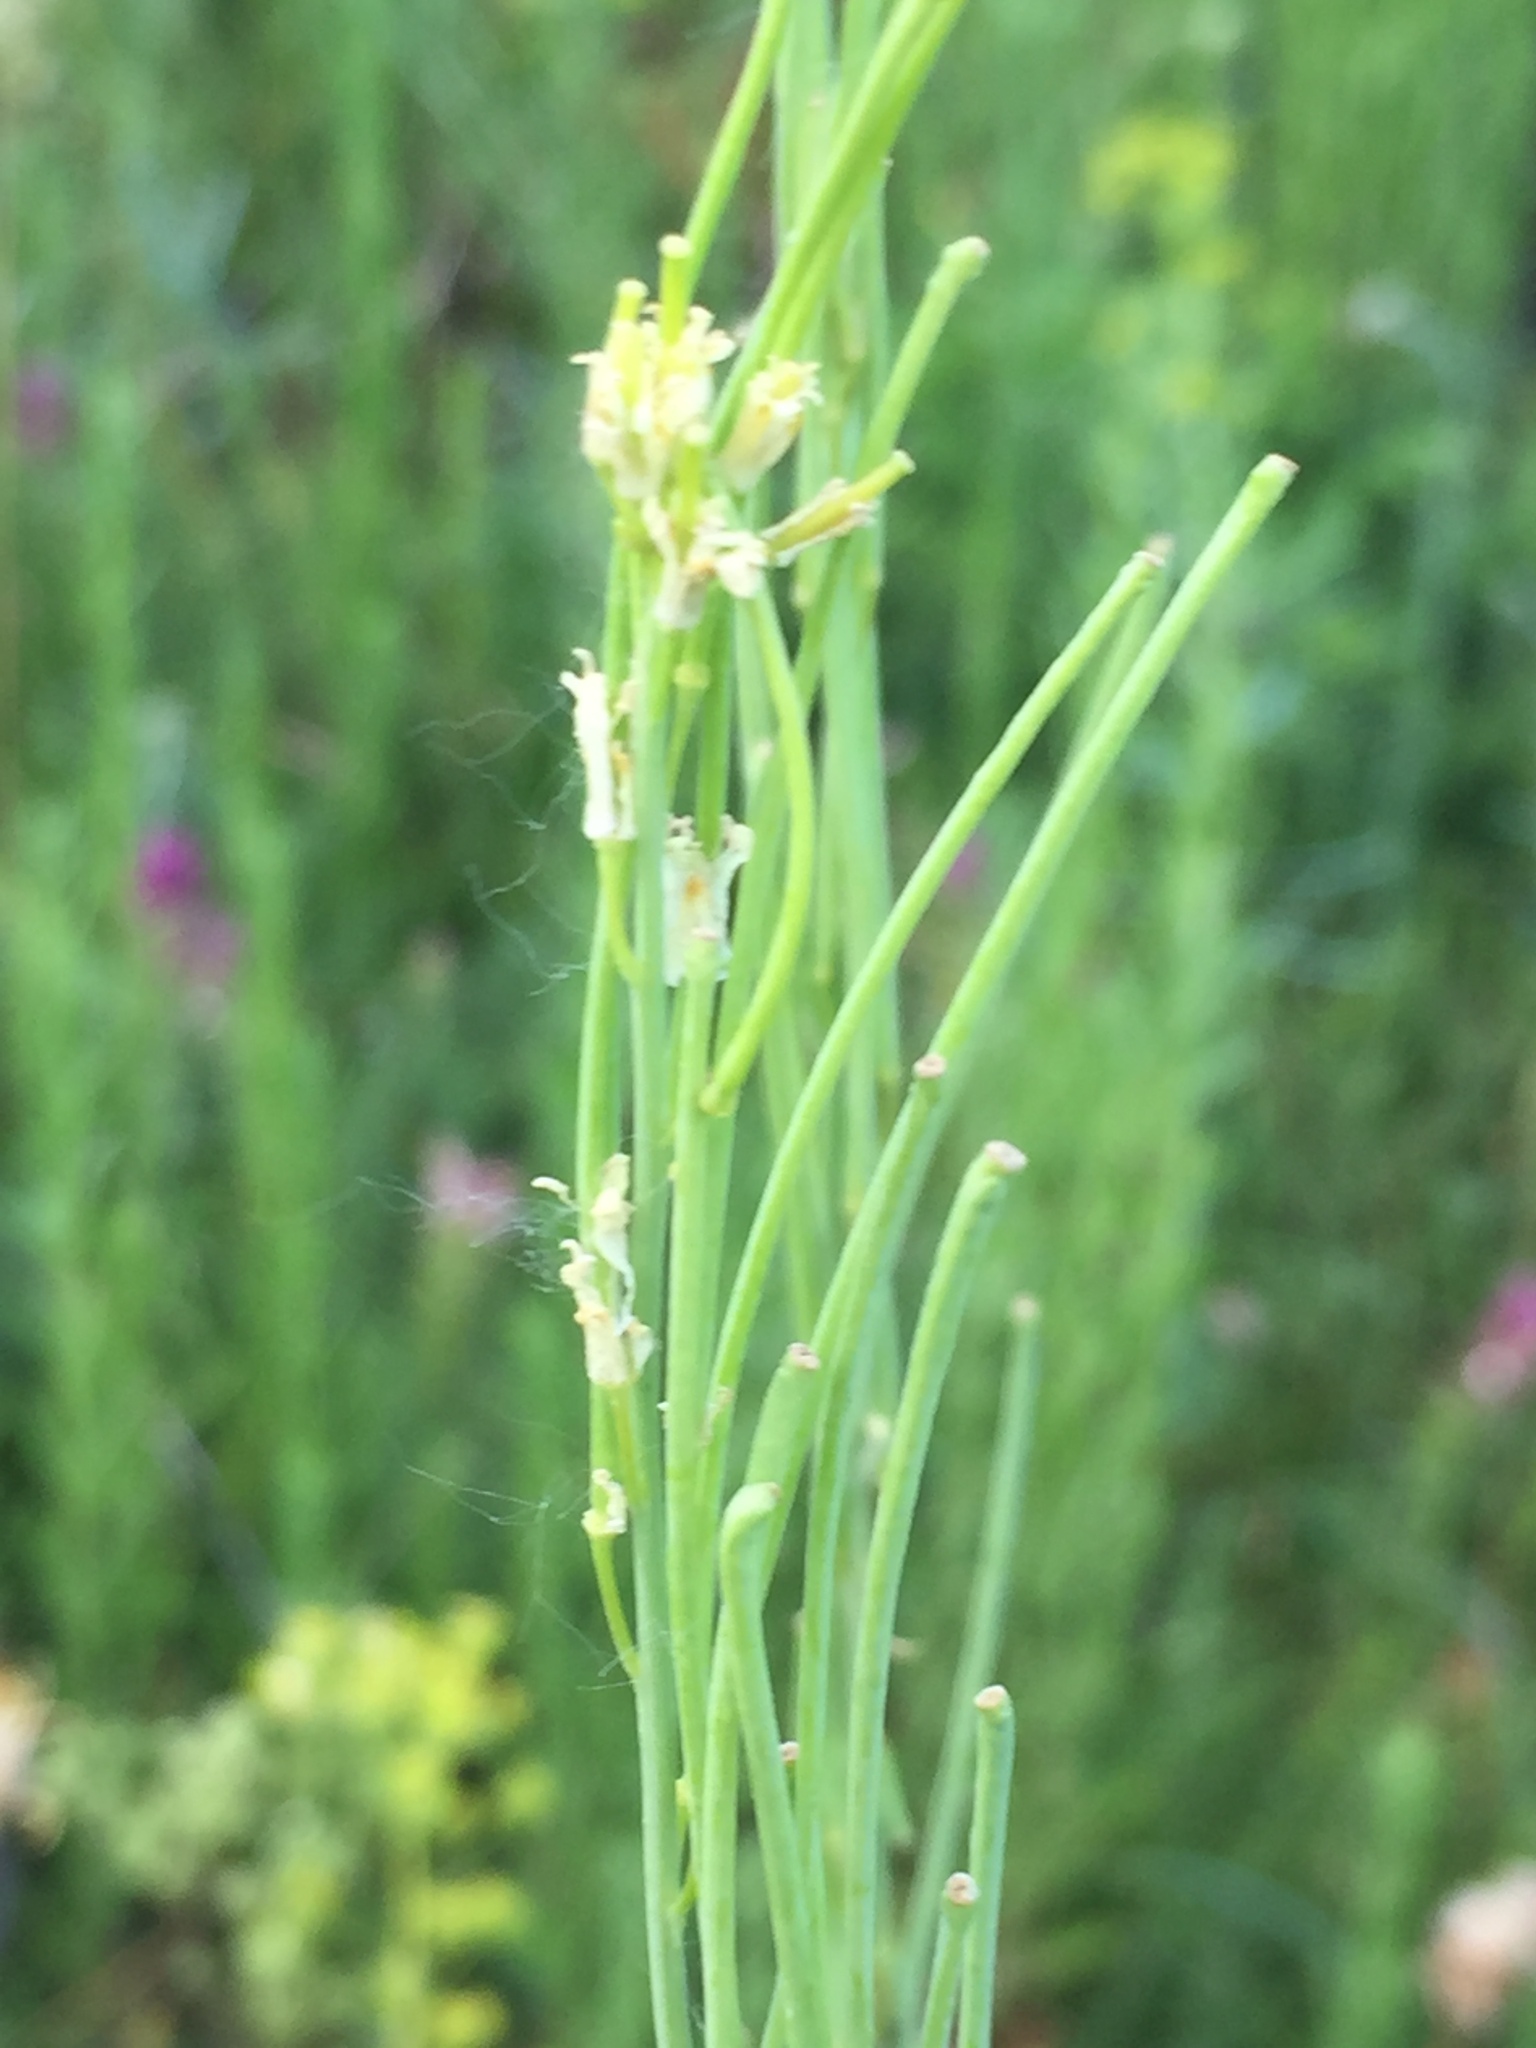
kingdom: Plantae
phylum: Tracheophyta
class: Magnoliopsida
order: Brassicales
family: Brassicaceae
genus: Turritis
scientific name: Turritis glabra
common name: Tower rockcress
